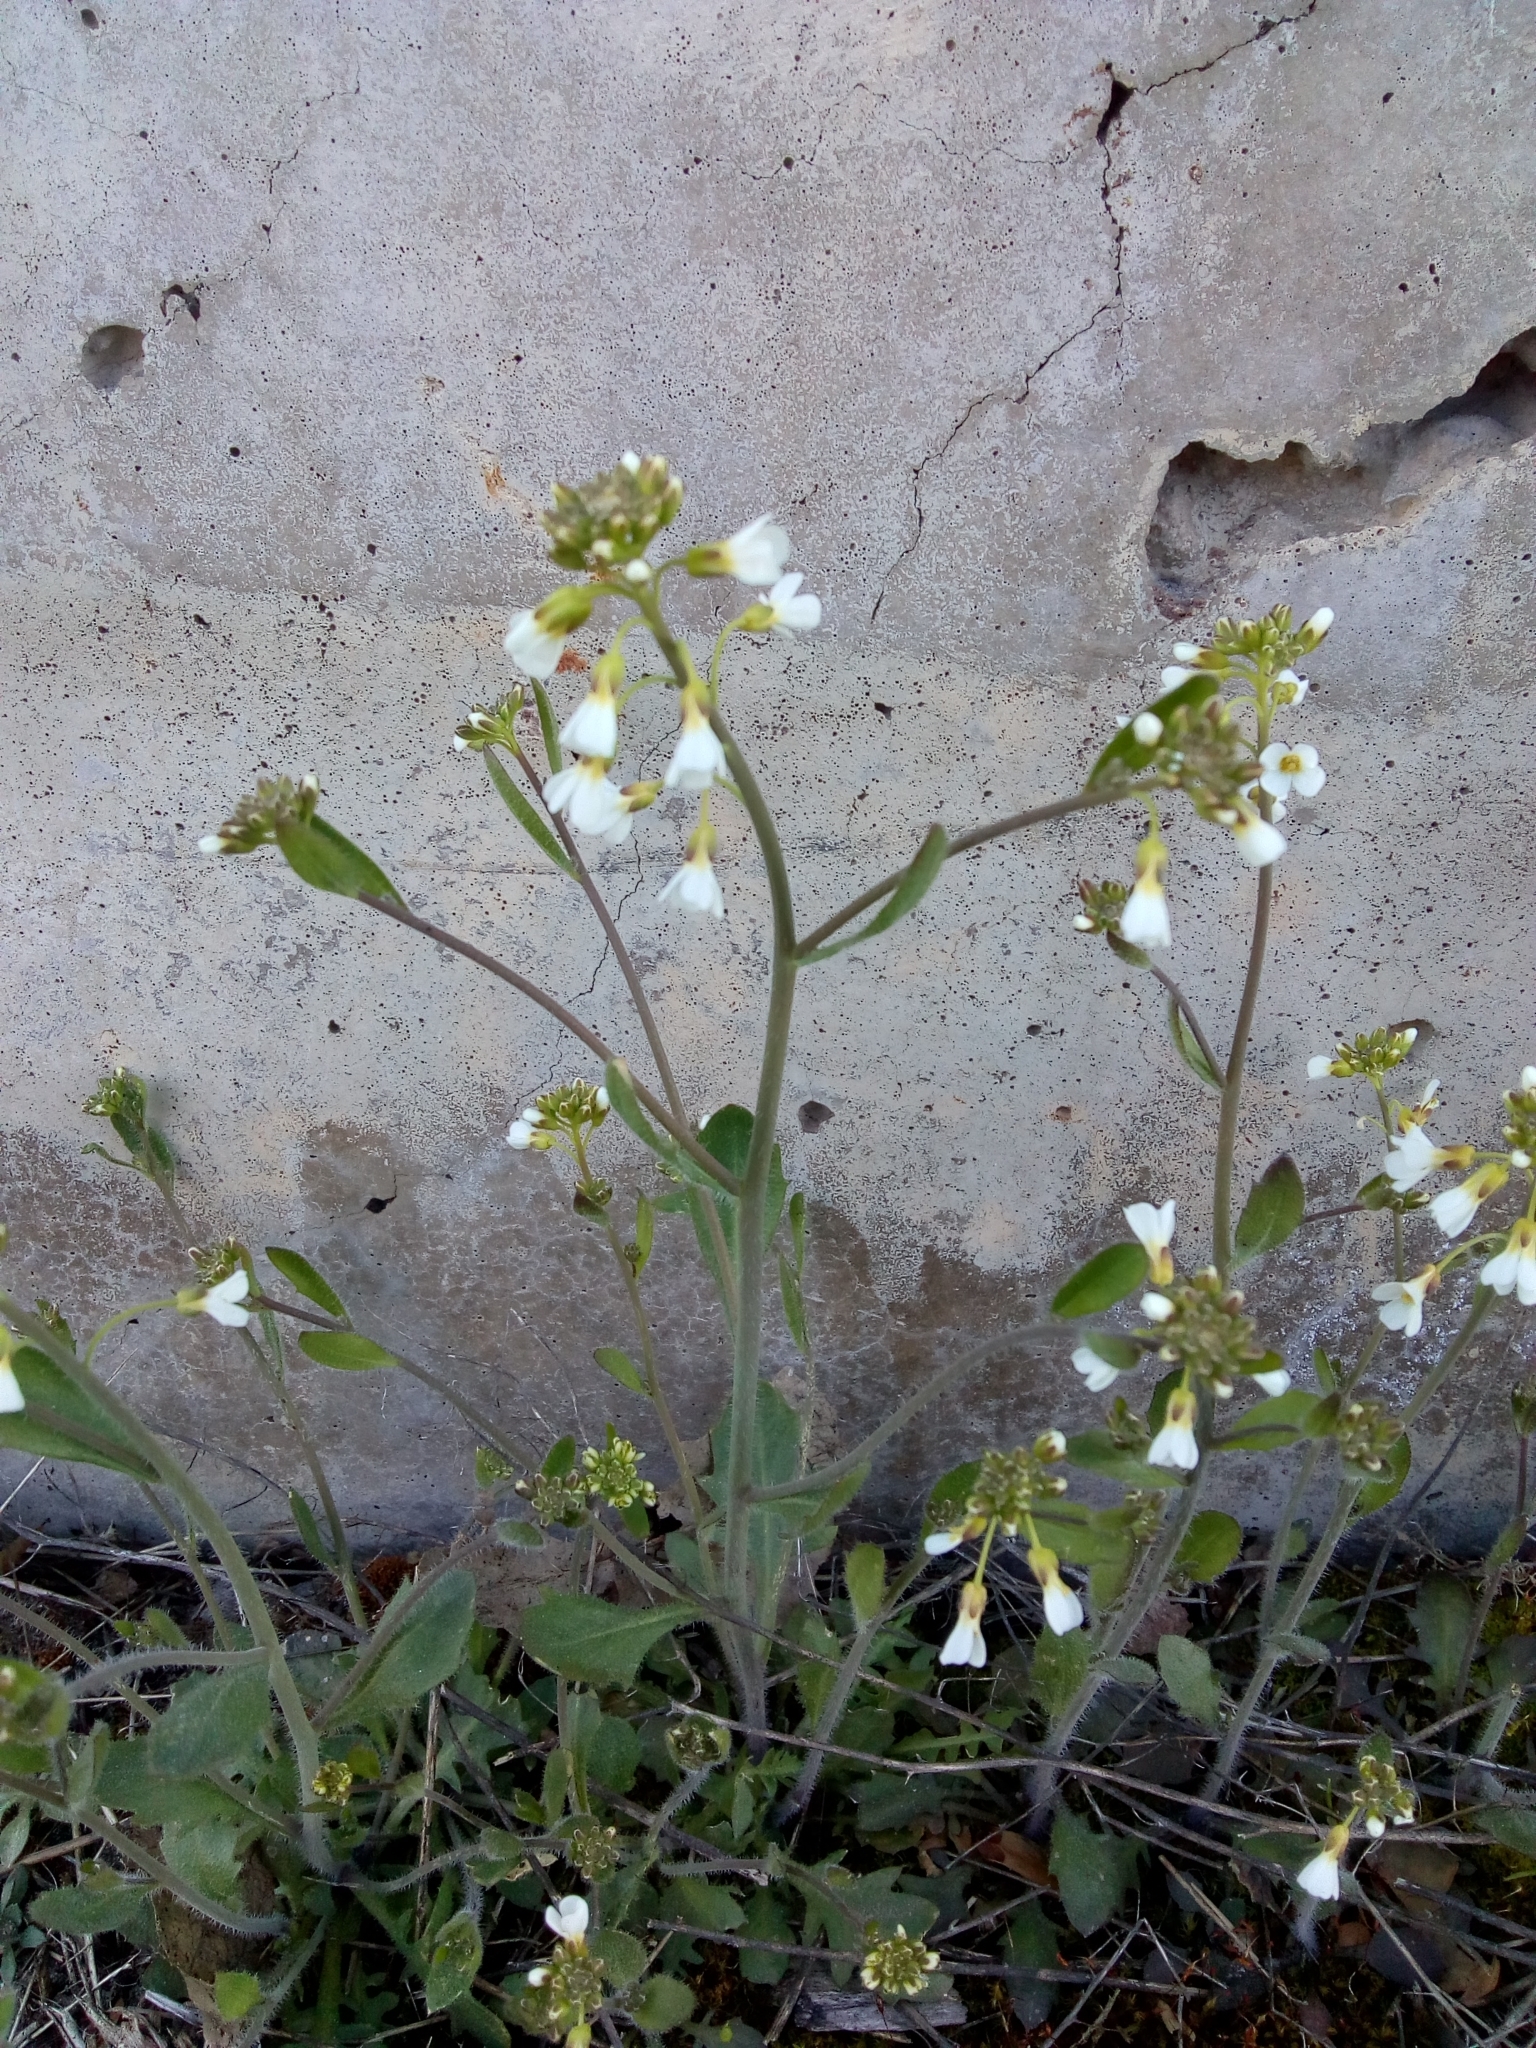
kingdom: Plantae
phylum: Tracheophyta
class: Magnoliopsida
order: Brassicales
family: Brassicaceae
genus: Arabidopsis
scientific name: Arabidopsis suecica
